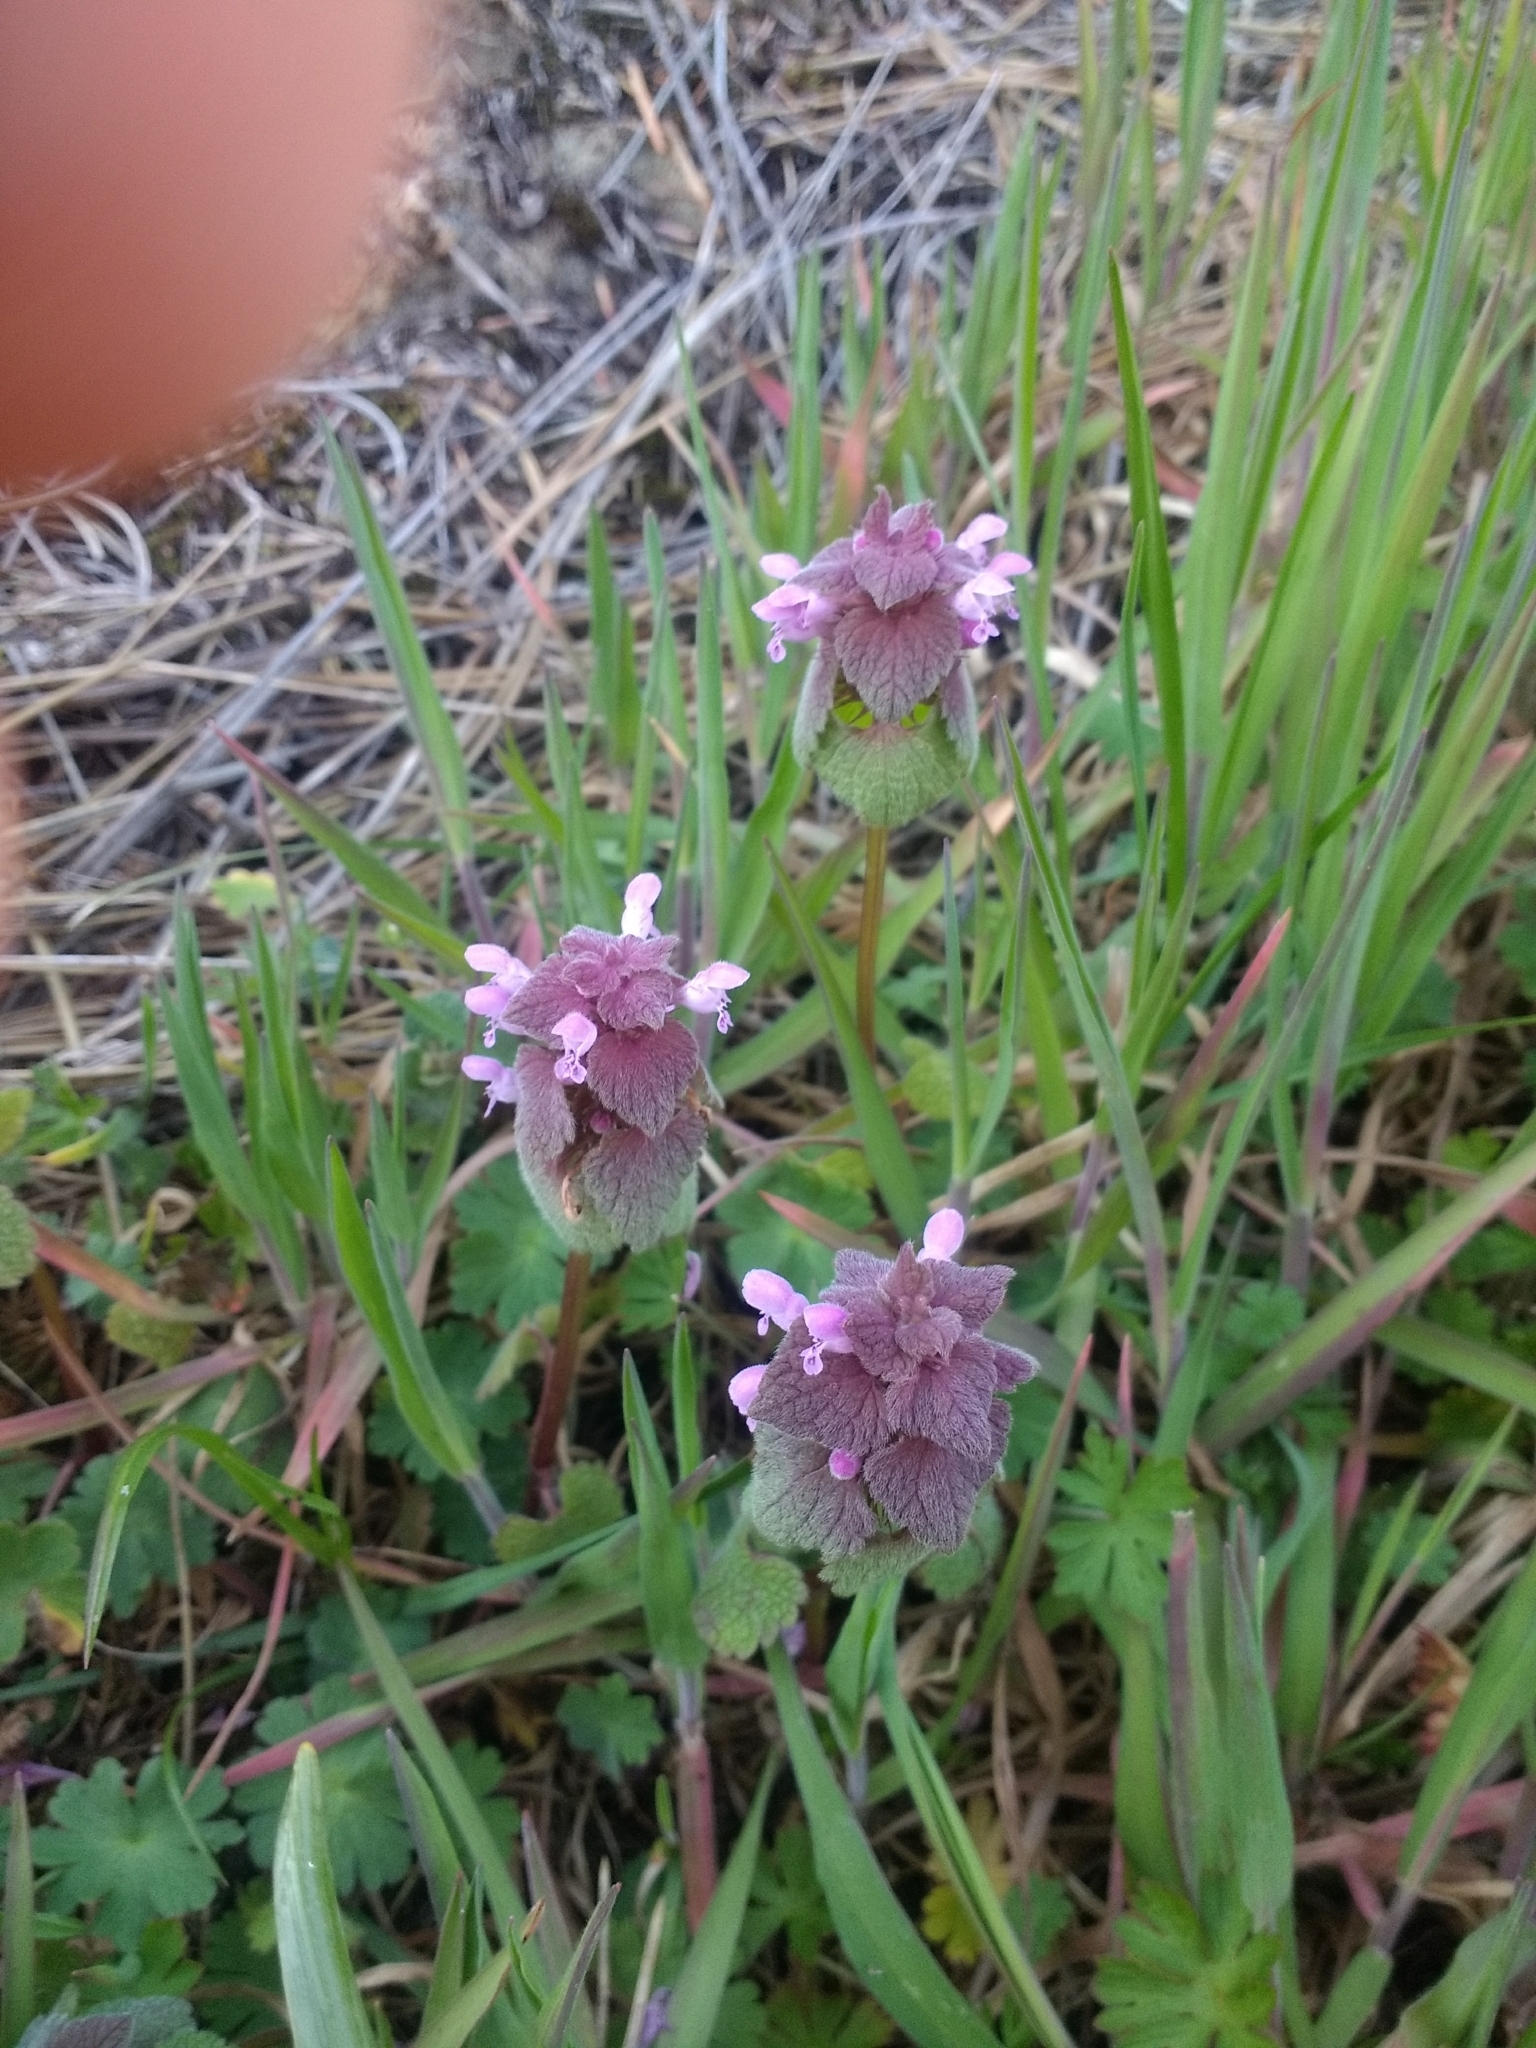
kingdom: Plantae
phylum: Tracheophyta
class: Magnoliopsida
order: Lamiales
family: Lamiaceae
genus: Lamium
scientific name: Lamium purpureum
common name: Red dead-nettle
